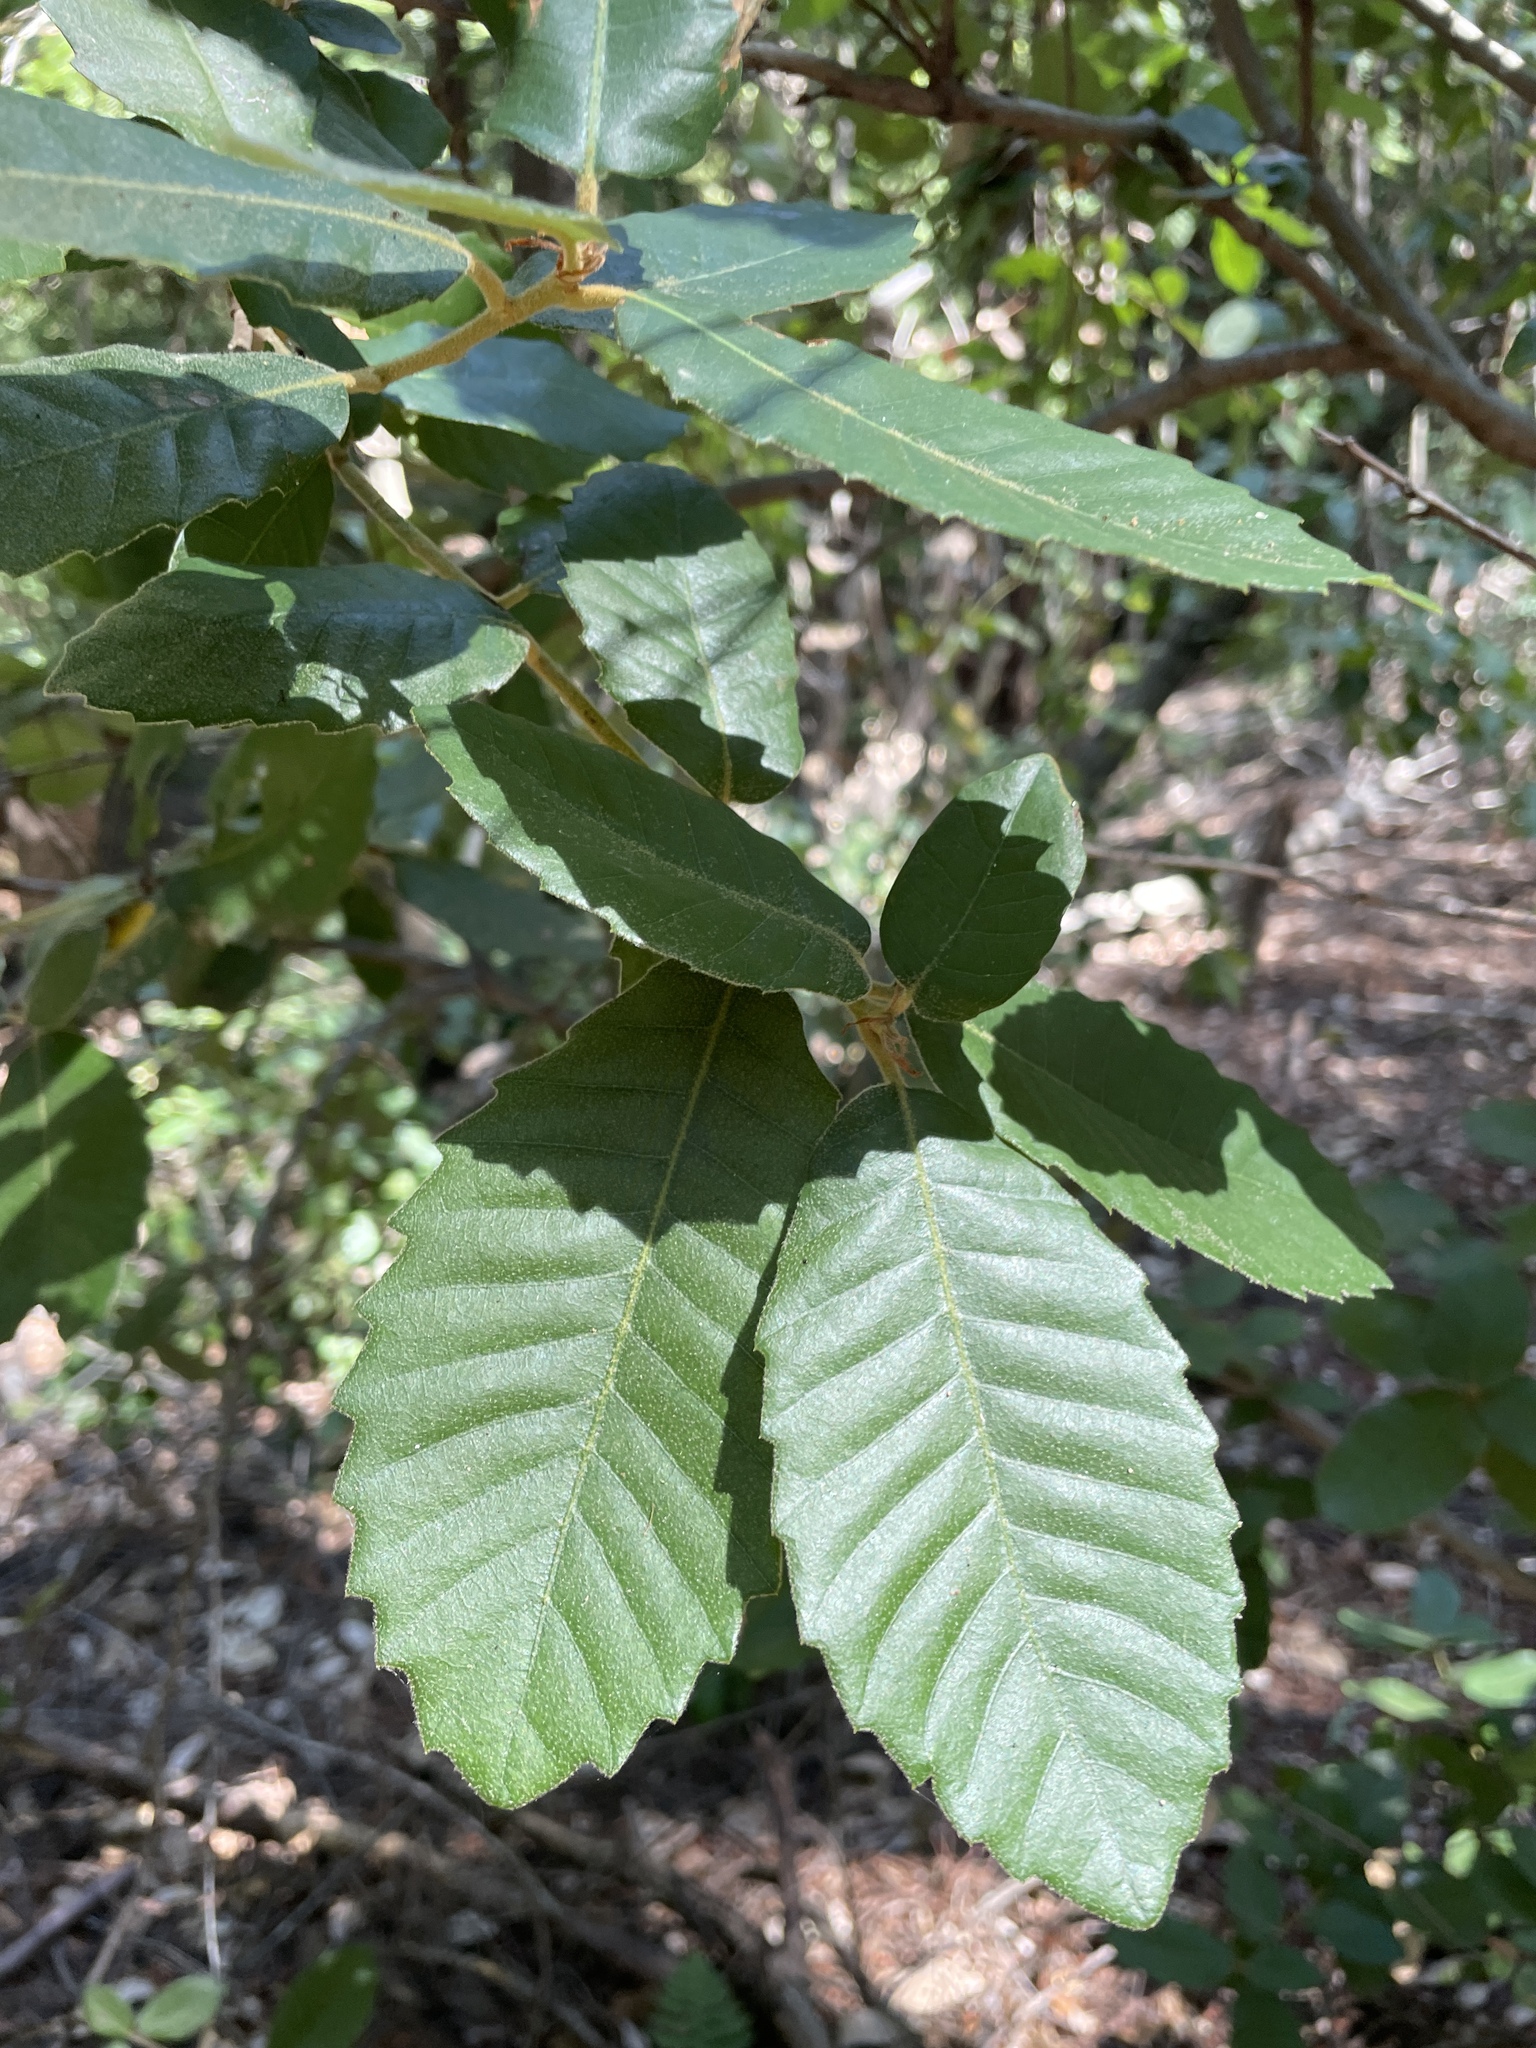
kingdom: Plantae
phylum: Tracheophyta
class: Magnoliopsida
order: Fagales
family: Fagaceae
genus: Notholithocarpus
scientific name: Notholithocarpus densiflorus
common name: Tan bark oak
